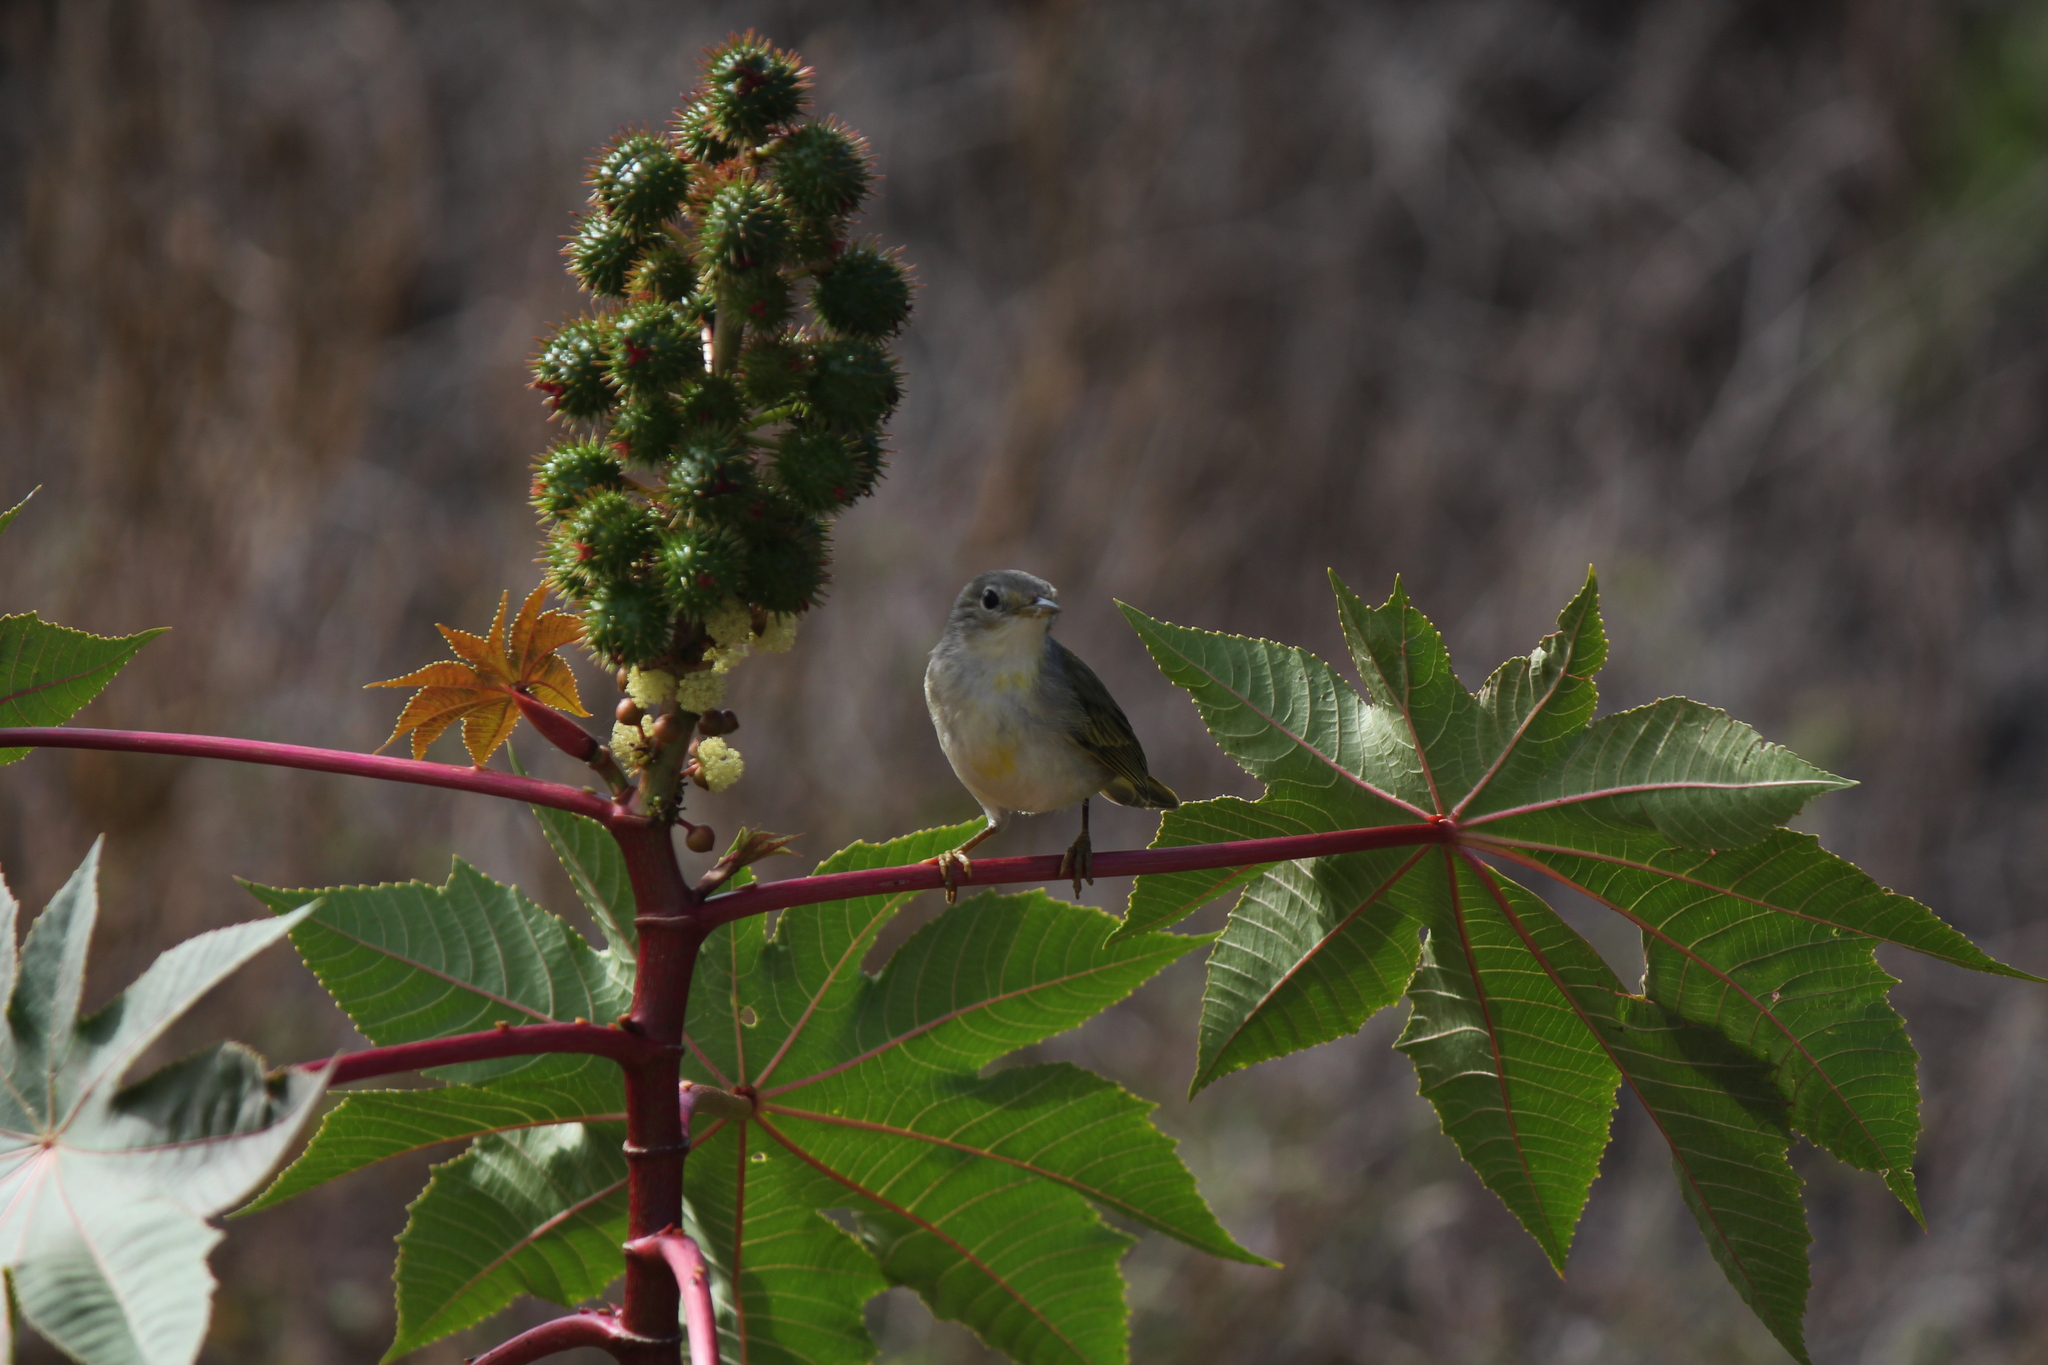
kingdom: Animalia
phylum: Chordata
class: Aves
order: Passeriformes
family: Parulidae
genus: Setophaga
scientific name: Setophaga petechia
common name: Yellow warbler
